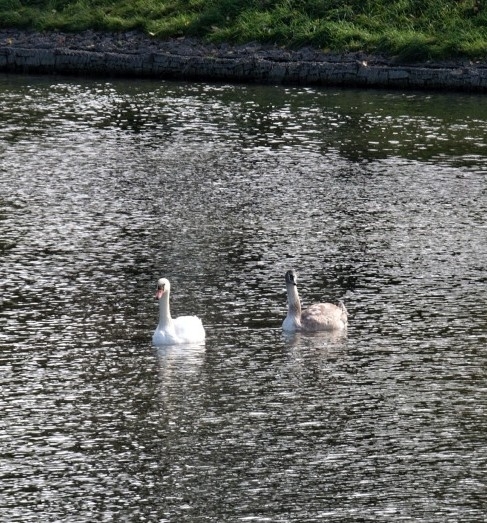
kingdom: Animalia
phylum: Chordata
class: Aves
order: Anseriformes
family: Anatidae
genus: Cygnus
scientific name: Cygnus olor
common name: Mute swan
